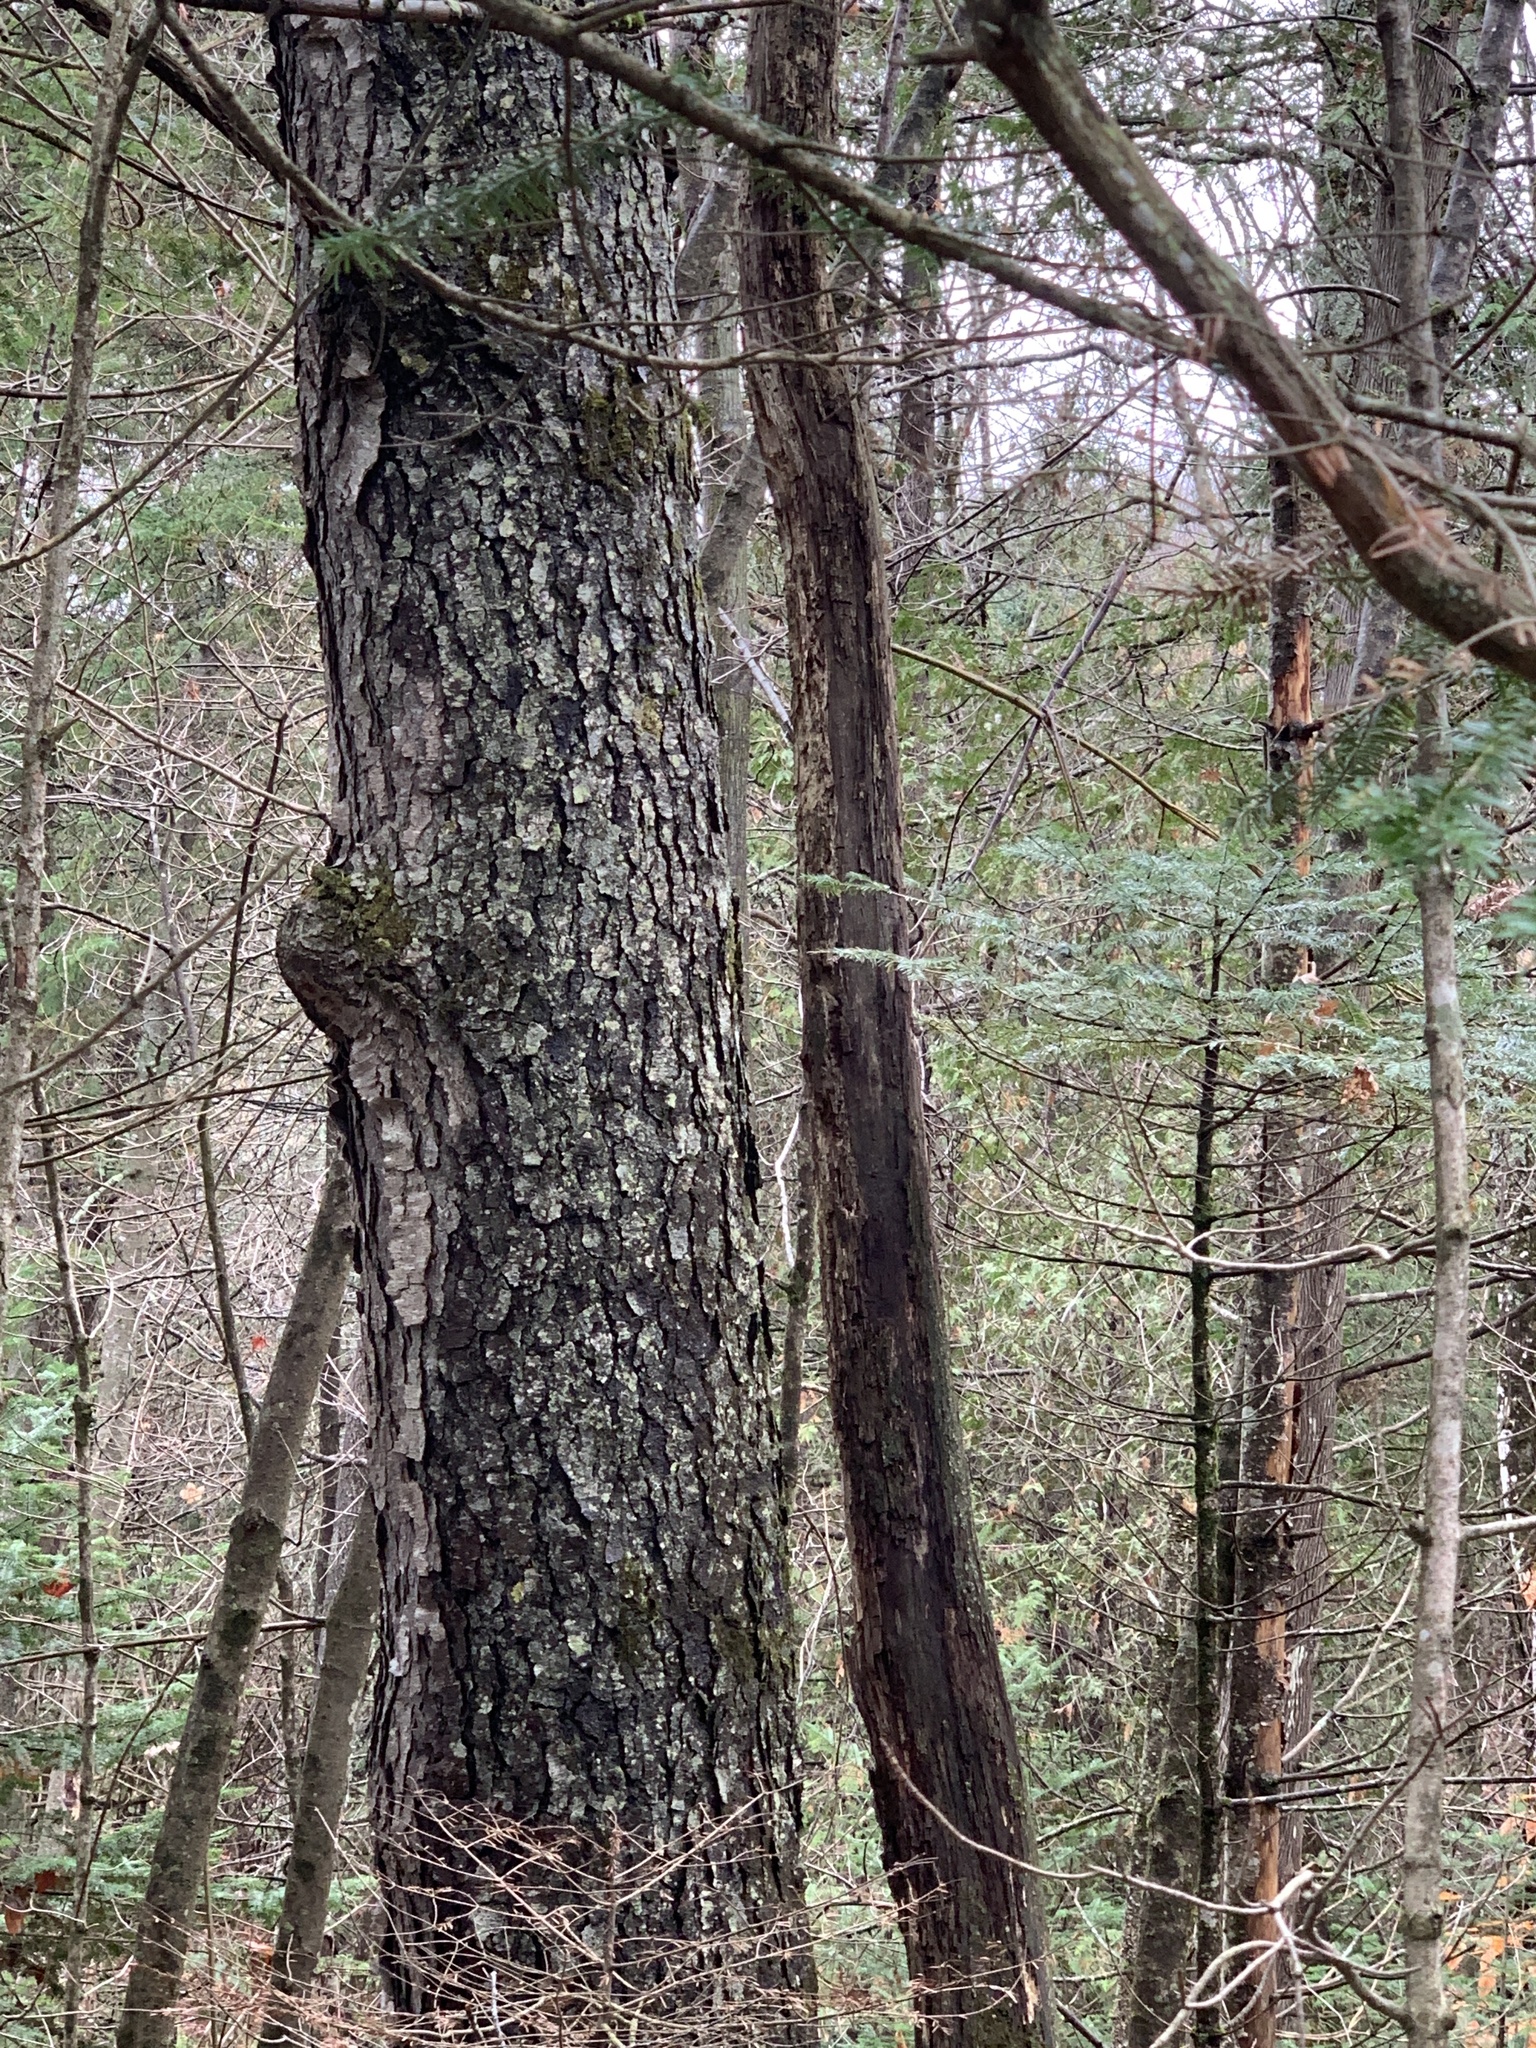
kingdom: Plantae
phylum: Tracheophyta
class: Magnoliopsida
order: Rosales
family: Rosaceae
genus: Prunus
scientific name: Prunus serotina
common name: Black cherry
